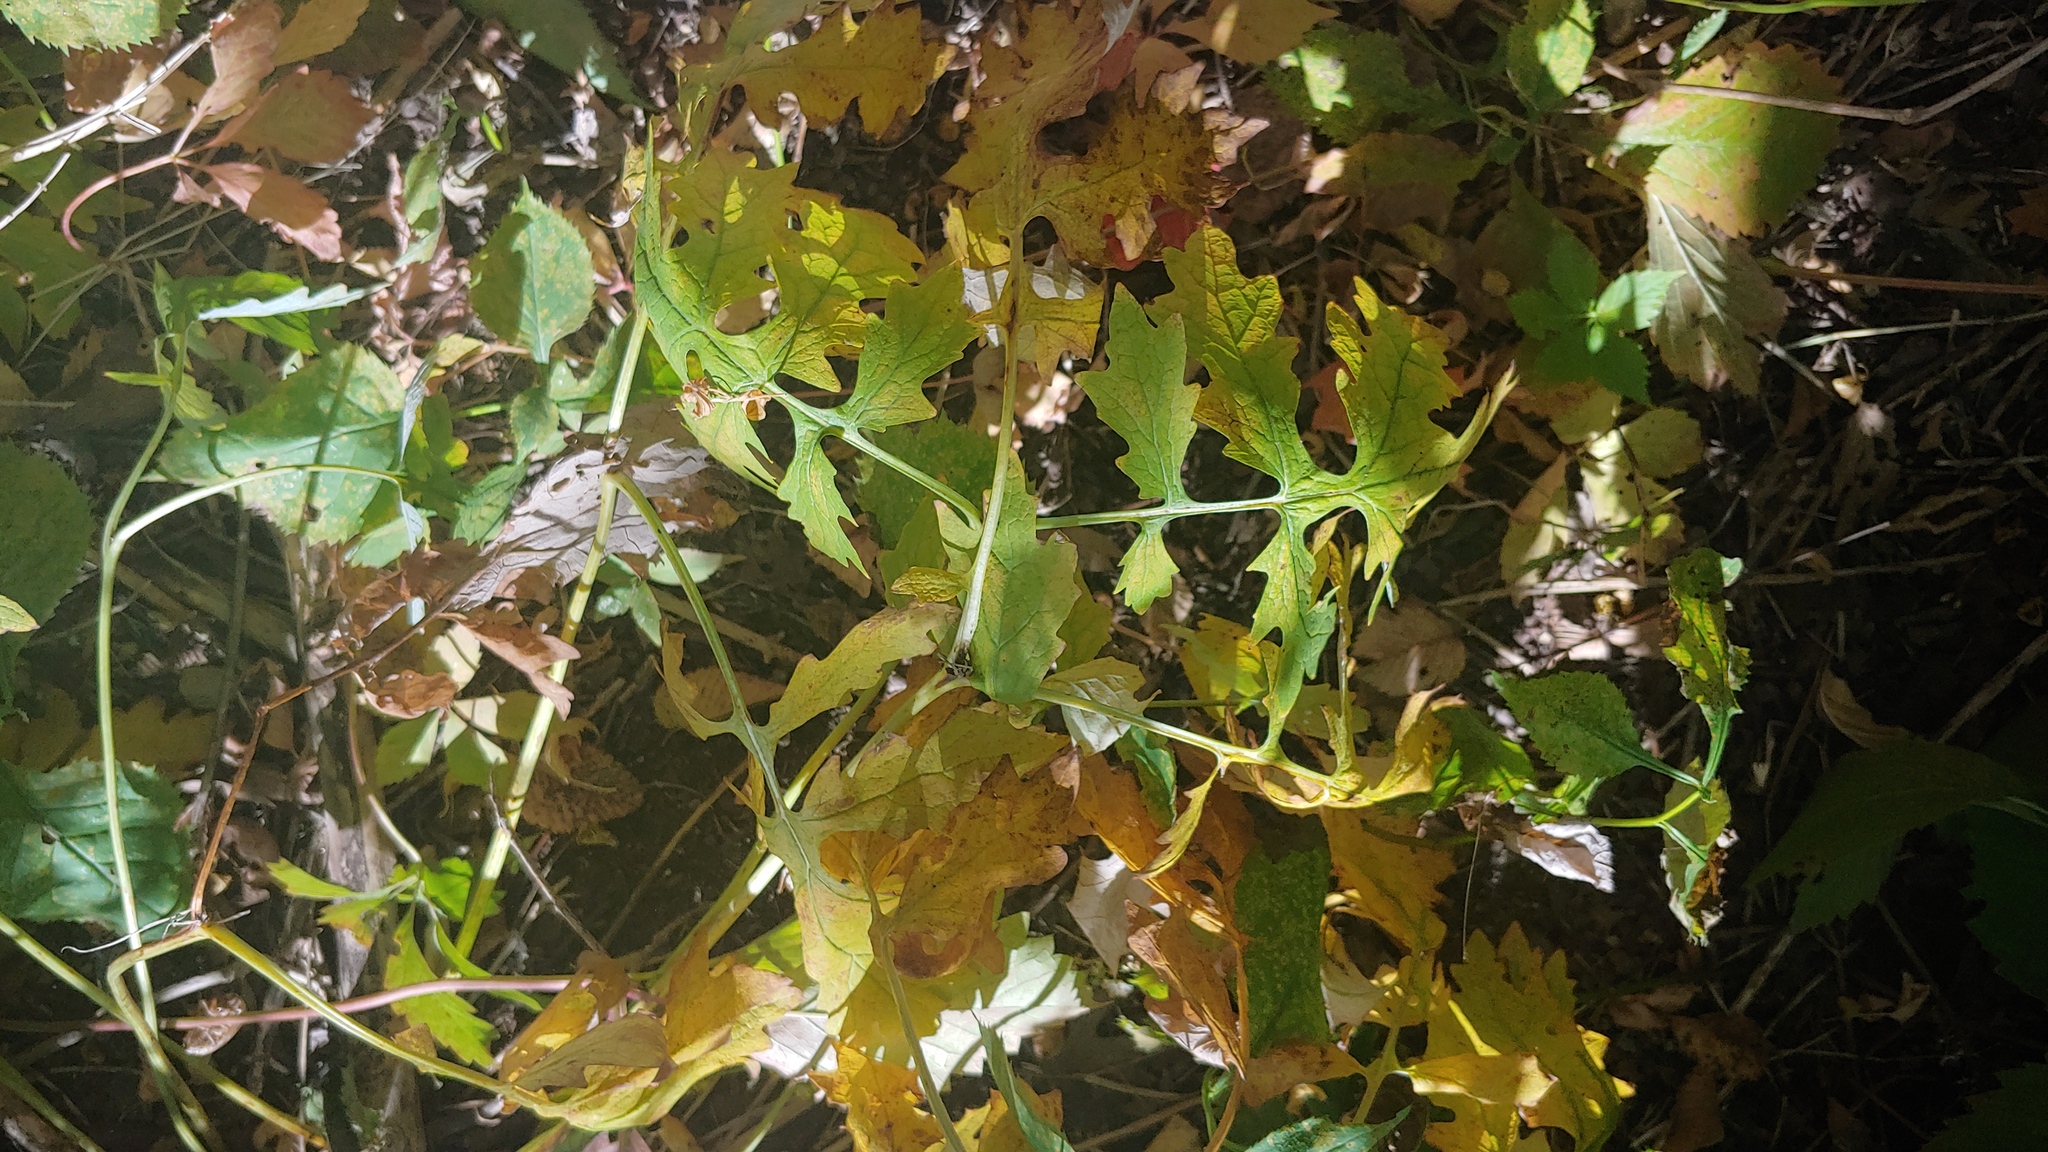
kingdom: Plantae
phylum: Tracheophyta
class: Magnoliopsida
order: Ranunculales
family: Papaveraceae
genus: Stylophorum
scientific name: Stylophorum diphyllum
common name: Celandine poppy
